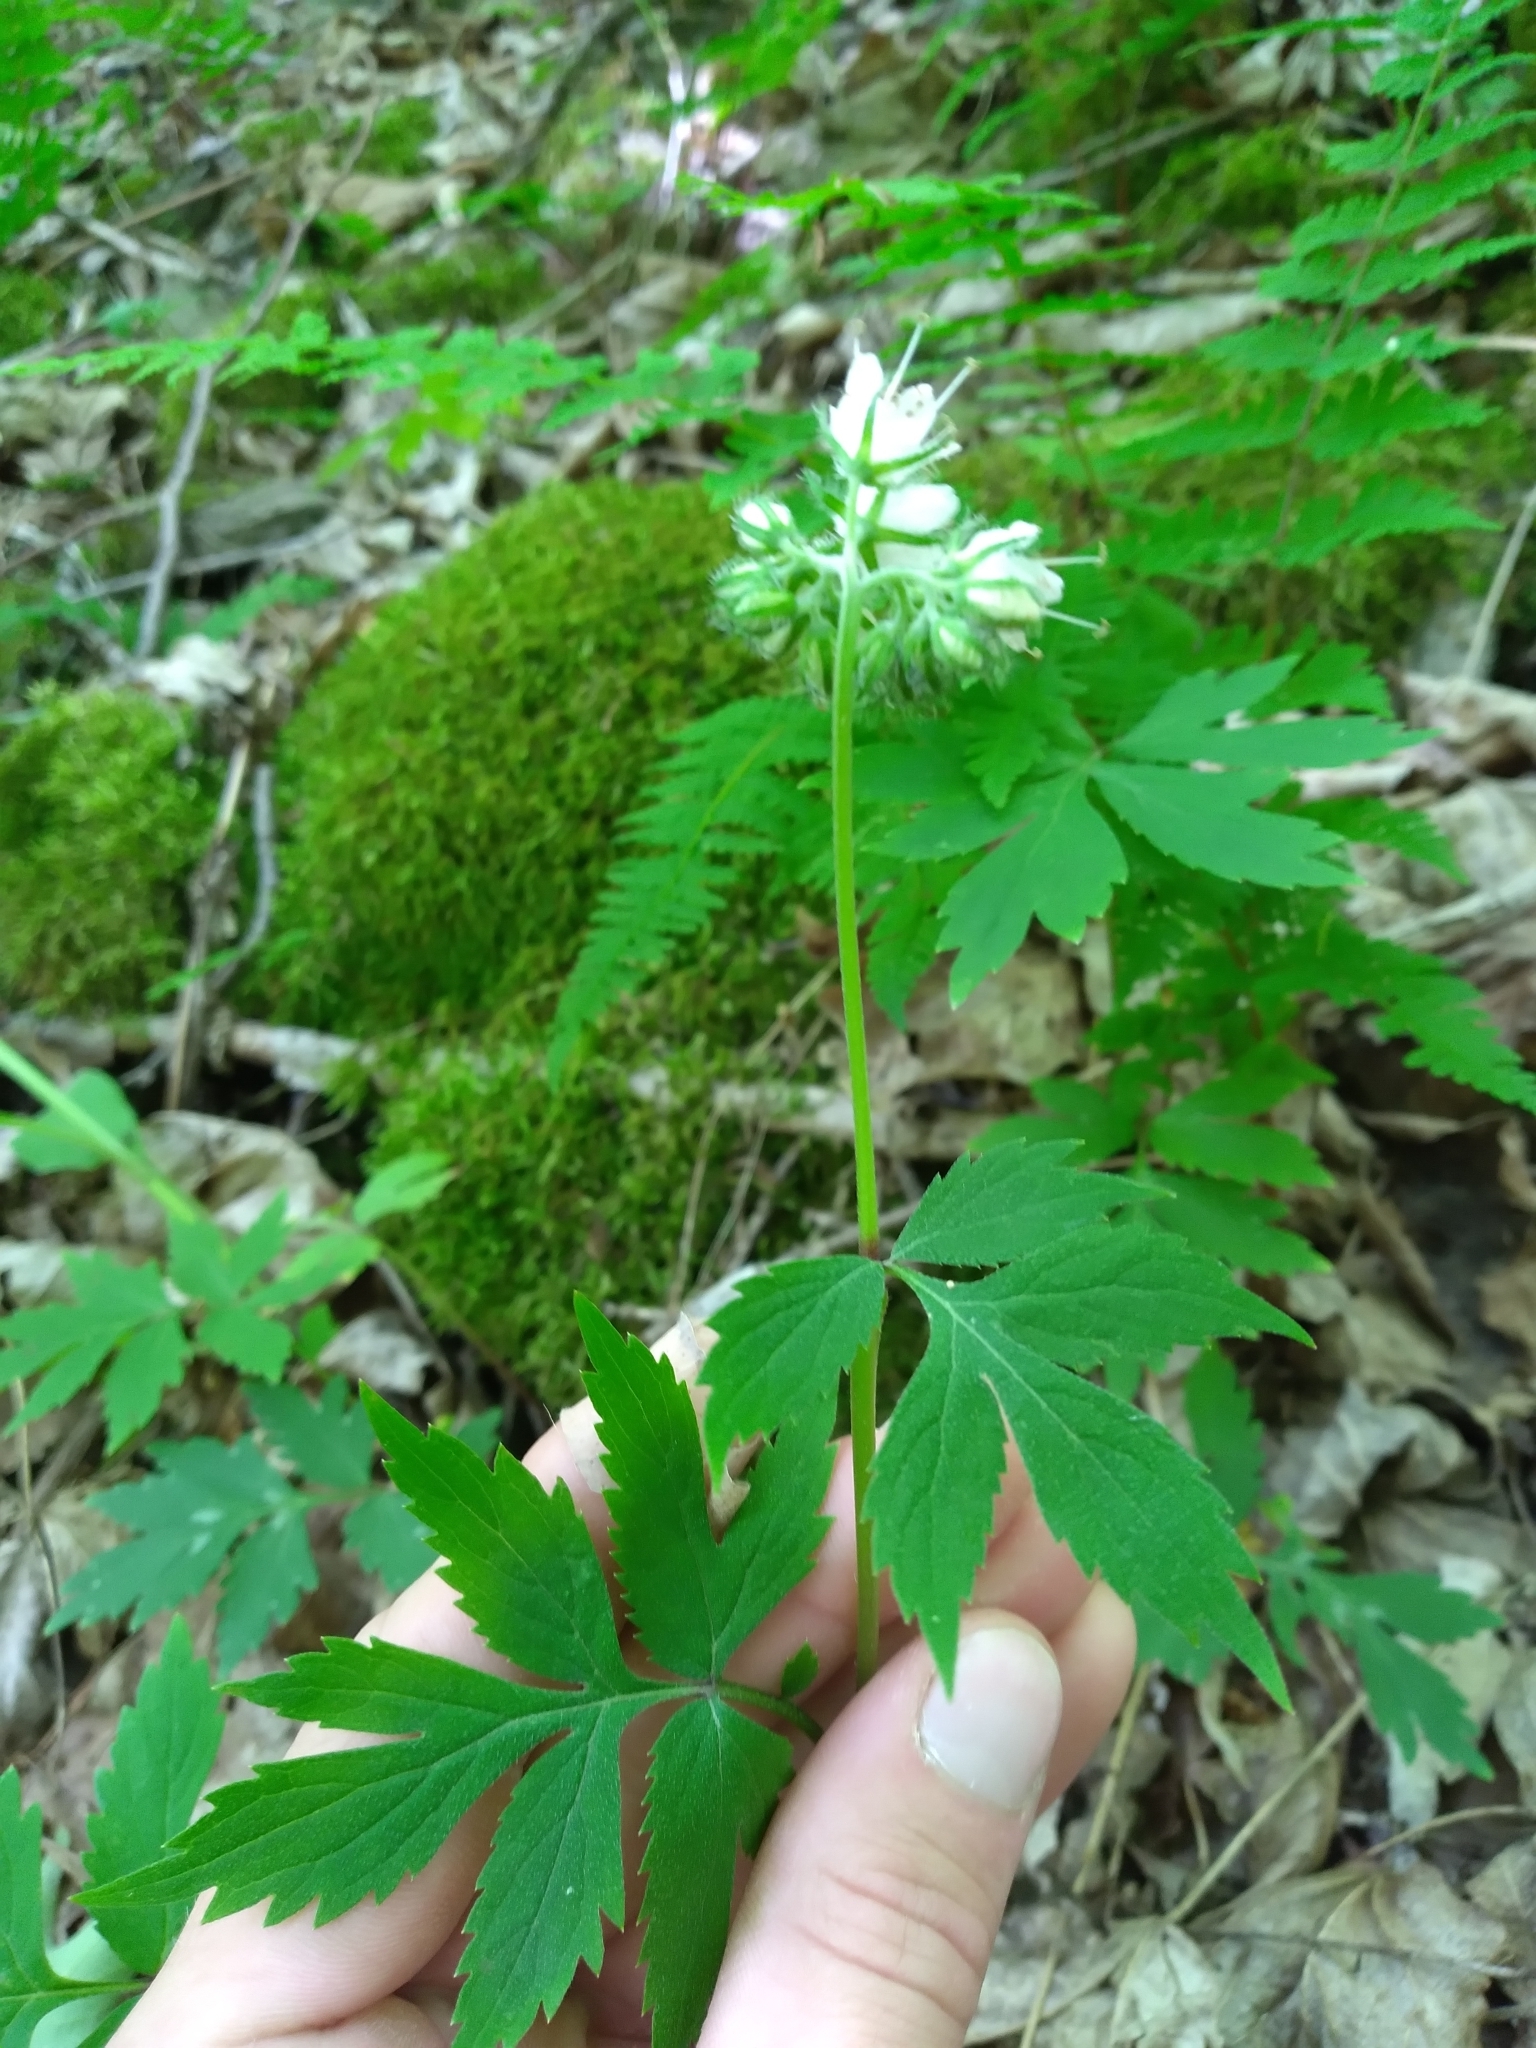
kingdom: Plantae
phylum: Tracheophyta
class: Magnoliopsida
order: Boraginales
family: Hydrophyllaceae
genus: Hydrophyllum
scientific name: Hydrophyllum virginianum
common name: Virginia waterleaf
